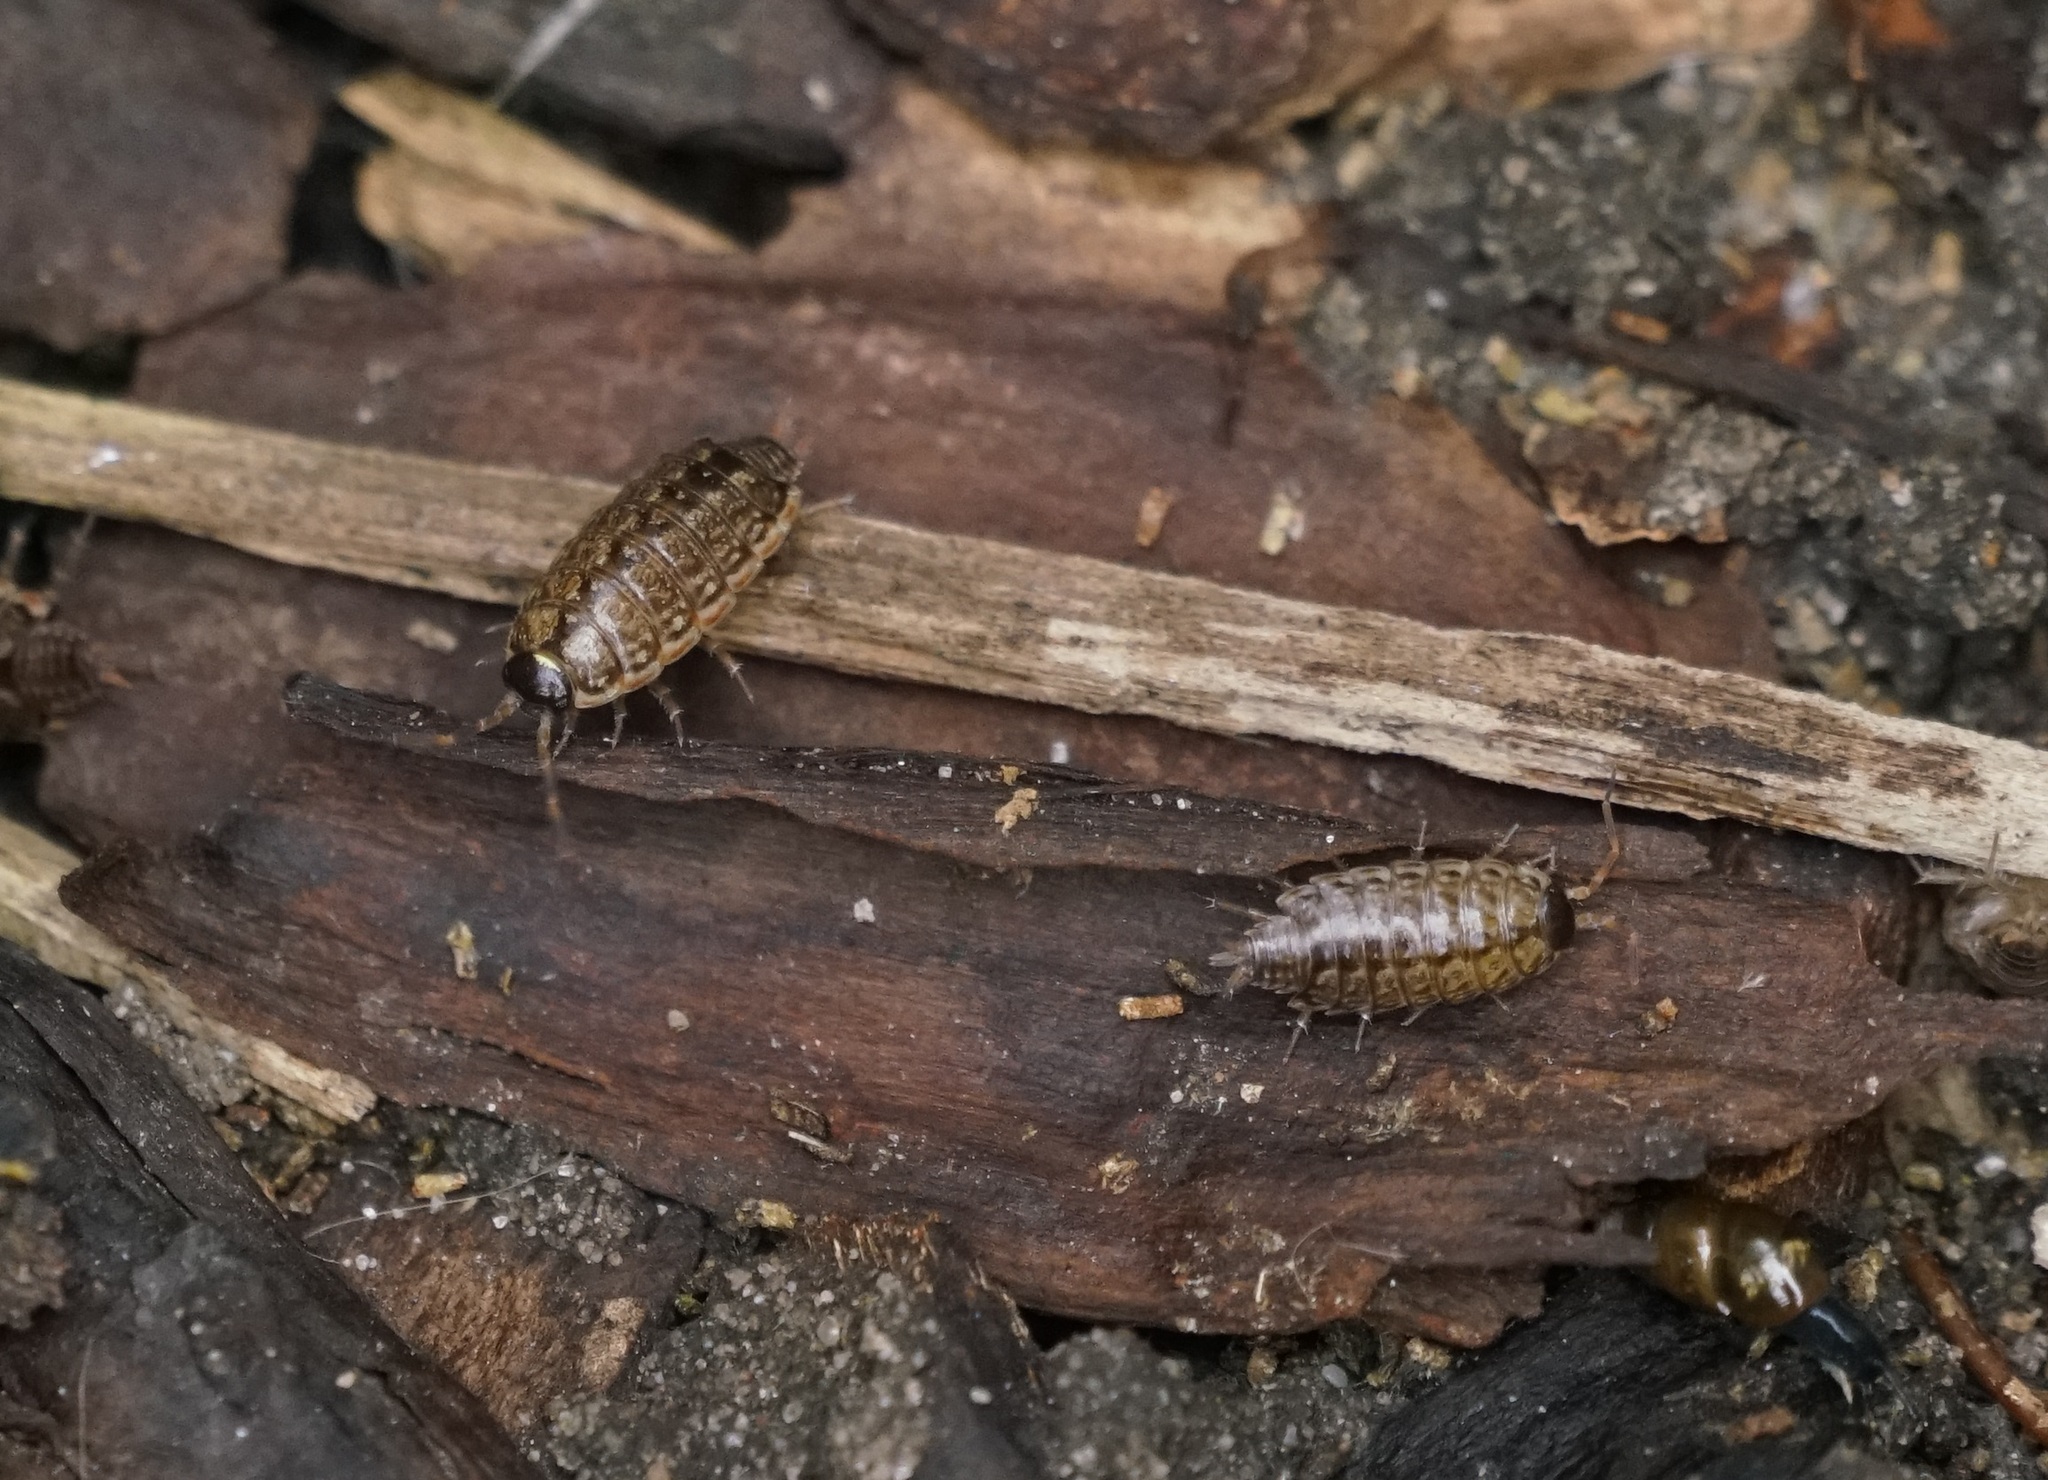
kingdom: Animalia
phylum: Arthropoda
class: Malacostraca
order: Isopoda
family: Philosciidae
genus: Philoscia
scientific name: Philoscia muscorum
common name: Common striped woodlouse
